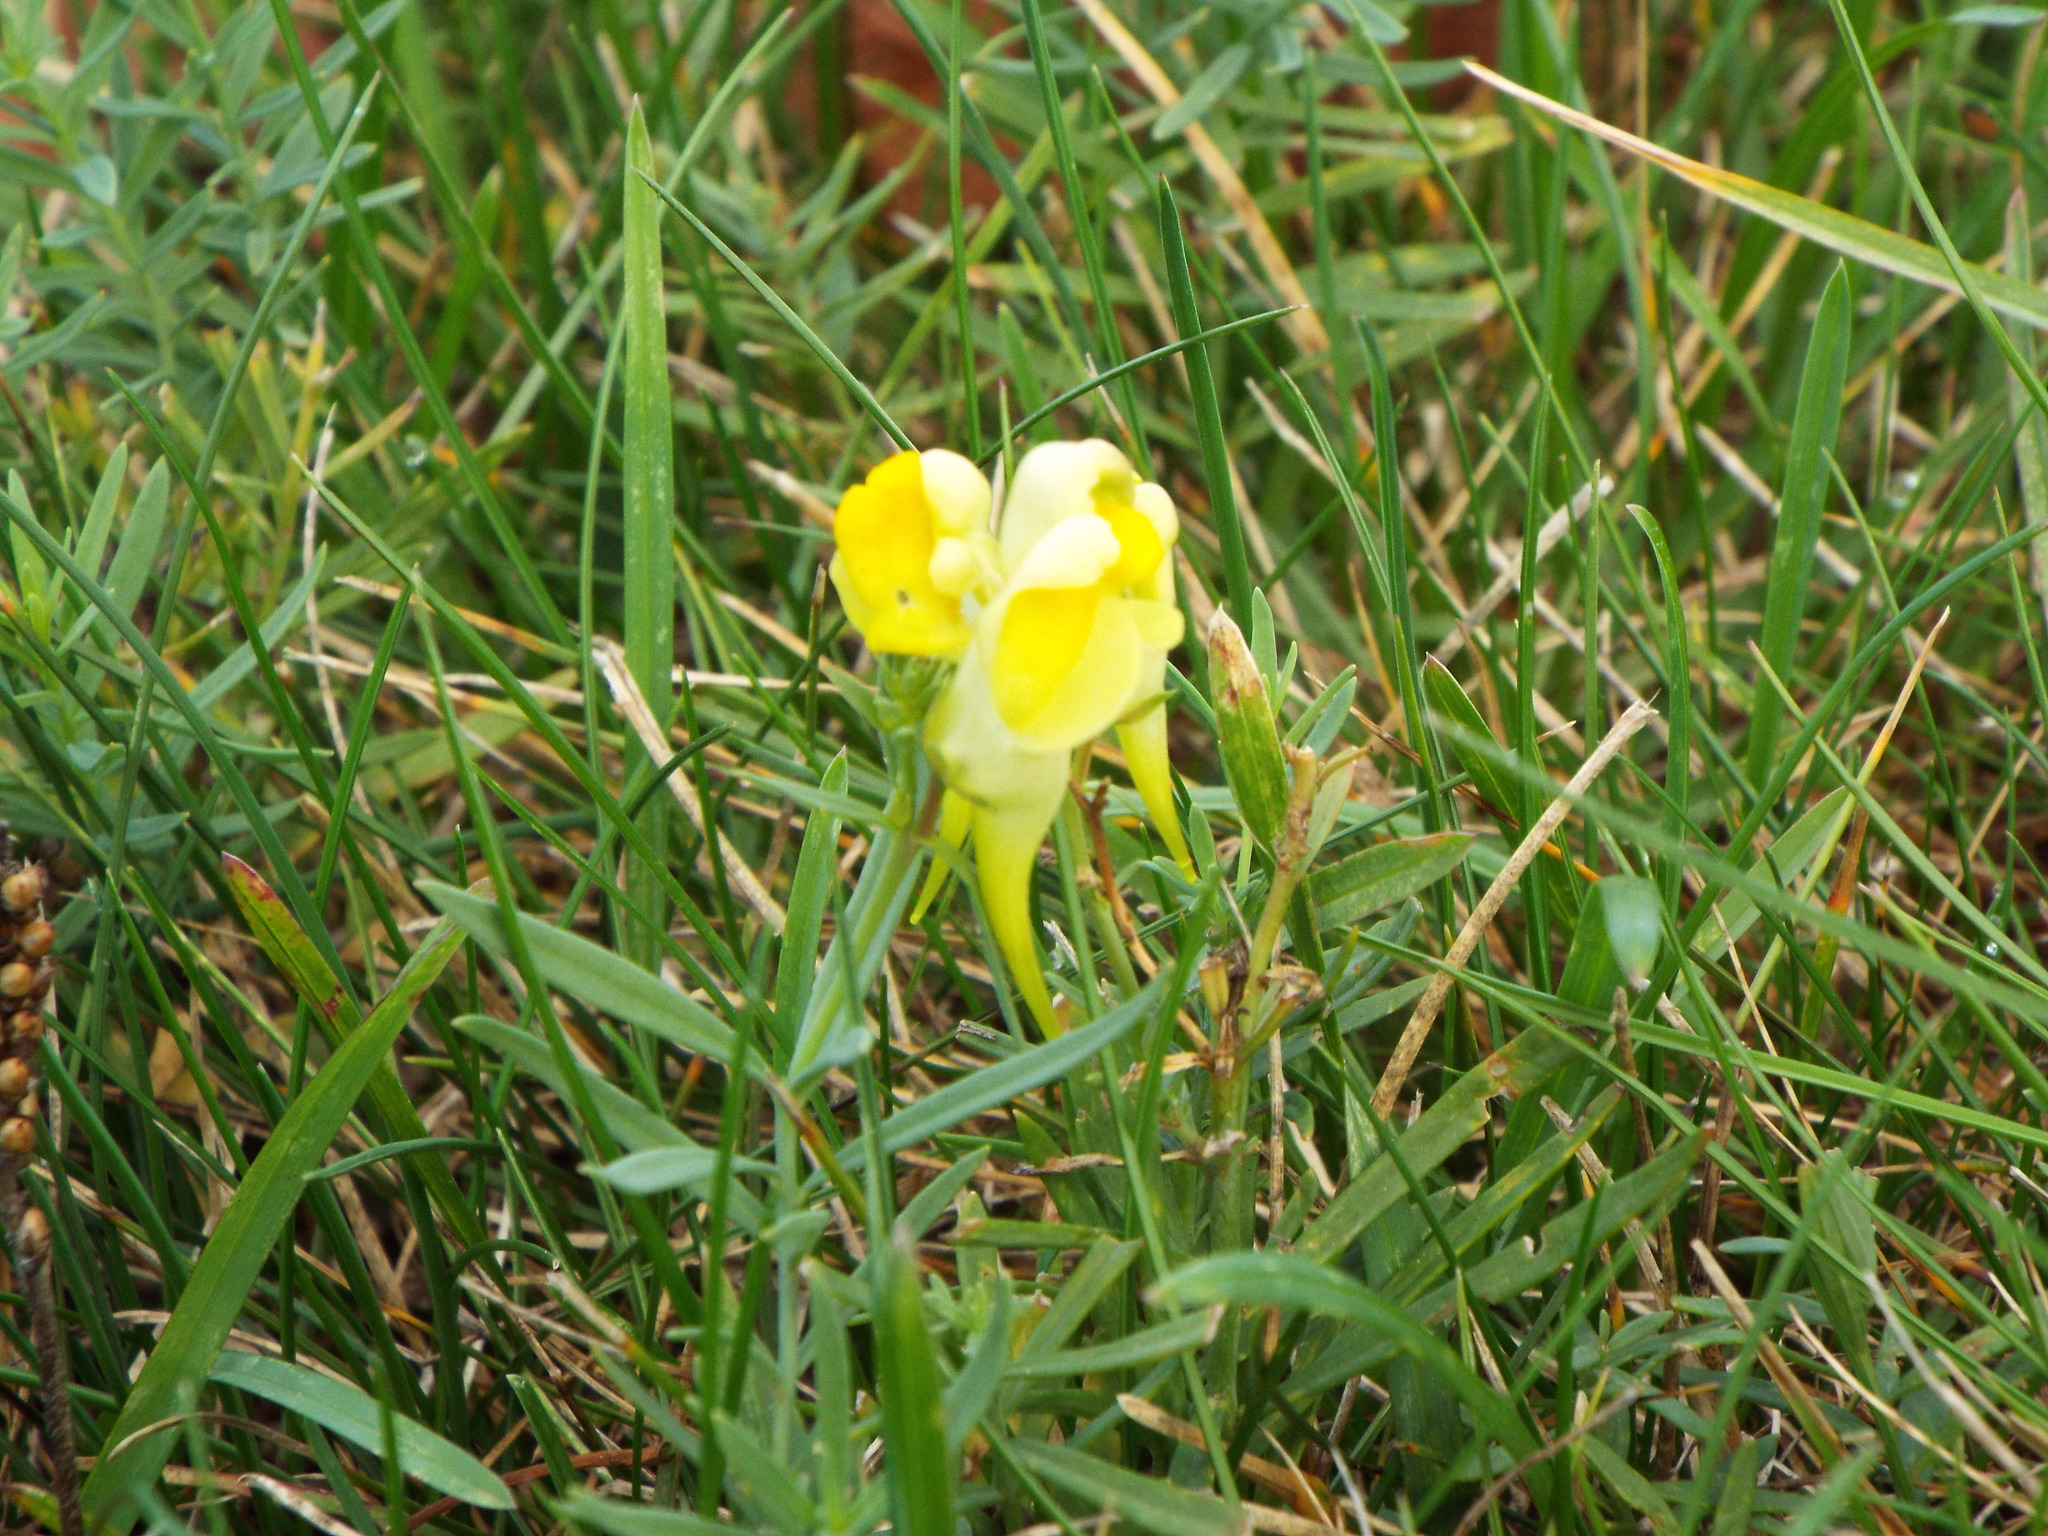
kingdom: Plantae
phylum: Tracheophyta
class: Magnoliopsida
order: Lamiales
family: Plantaginaceae
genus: Linaria
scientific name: Linaria vulgaris
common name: Butter and eggs
